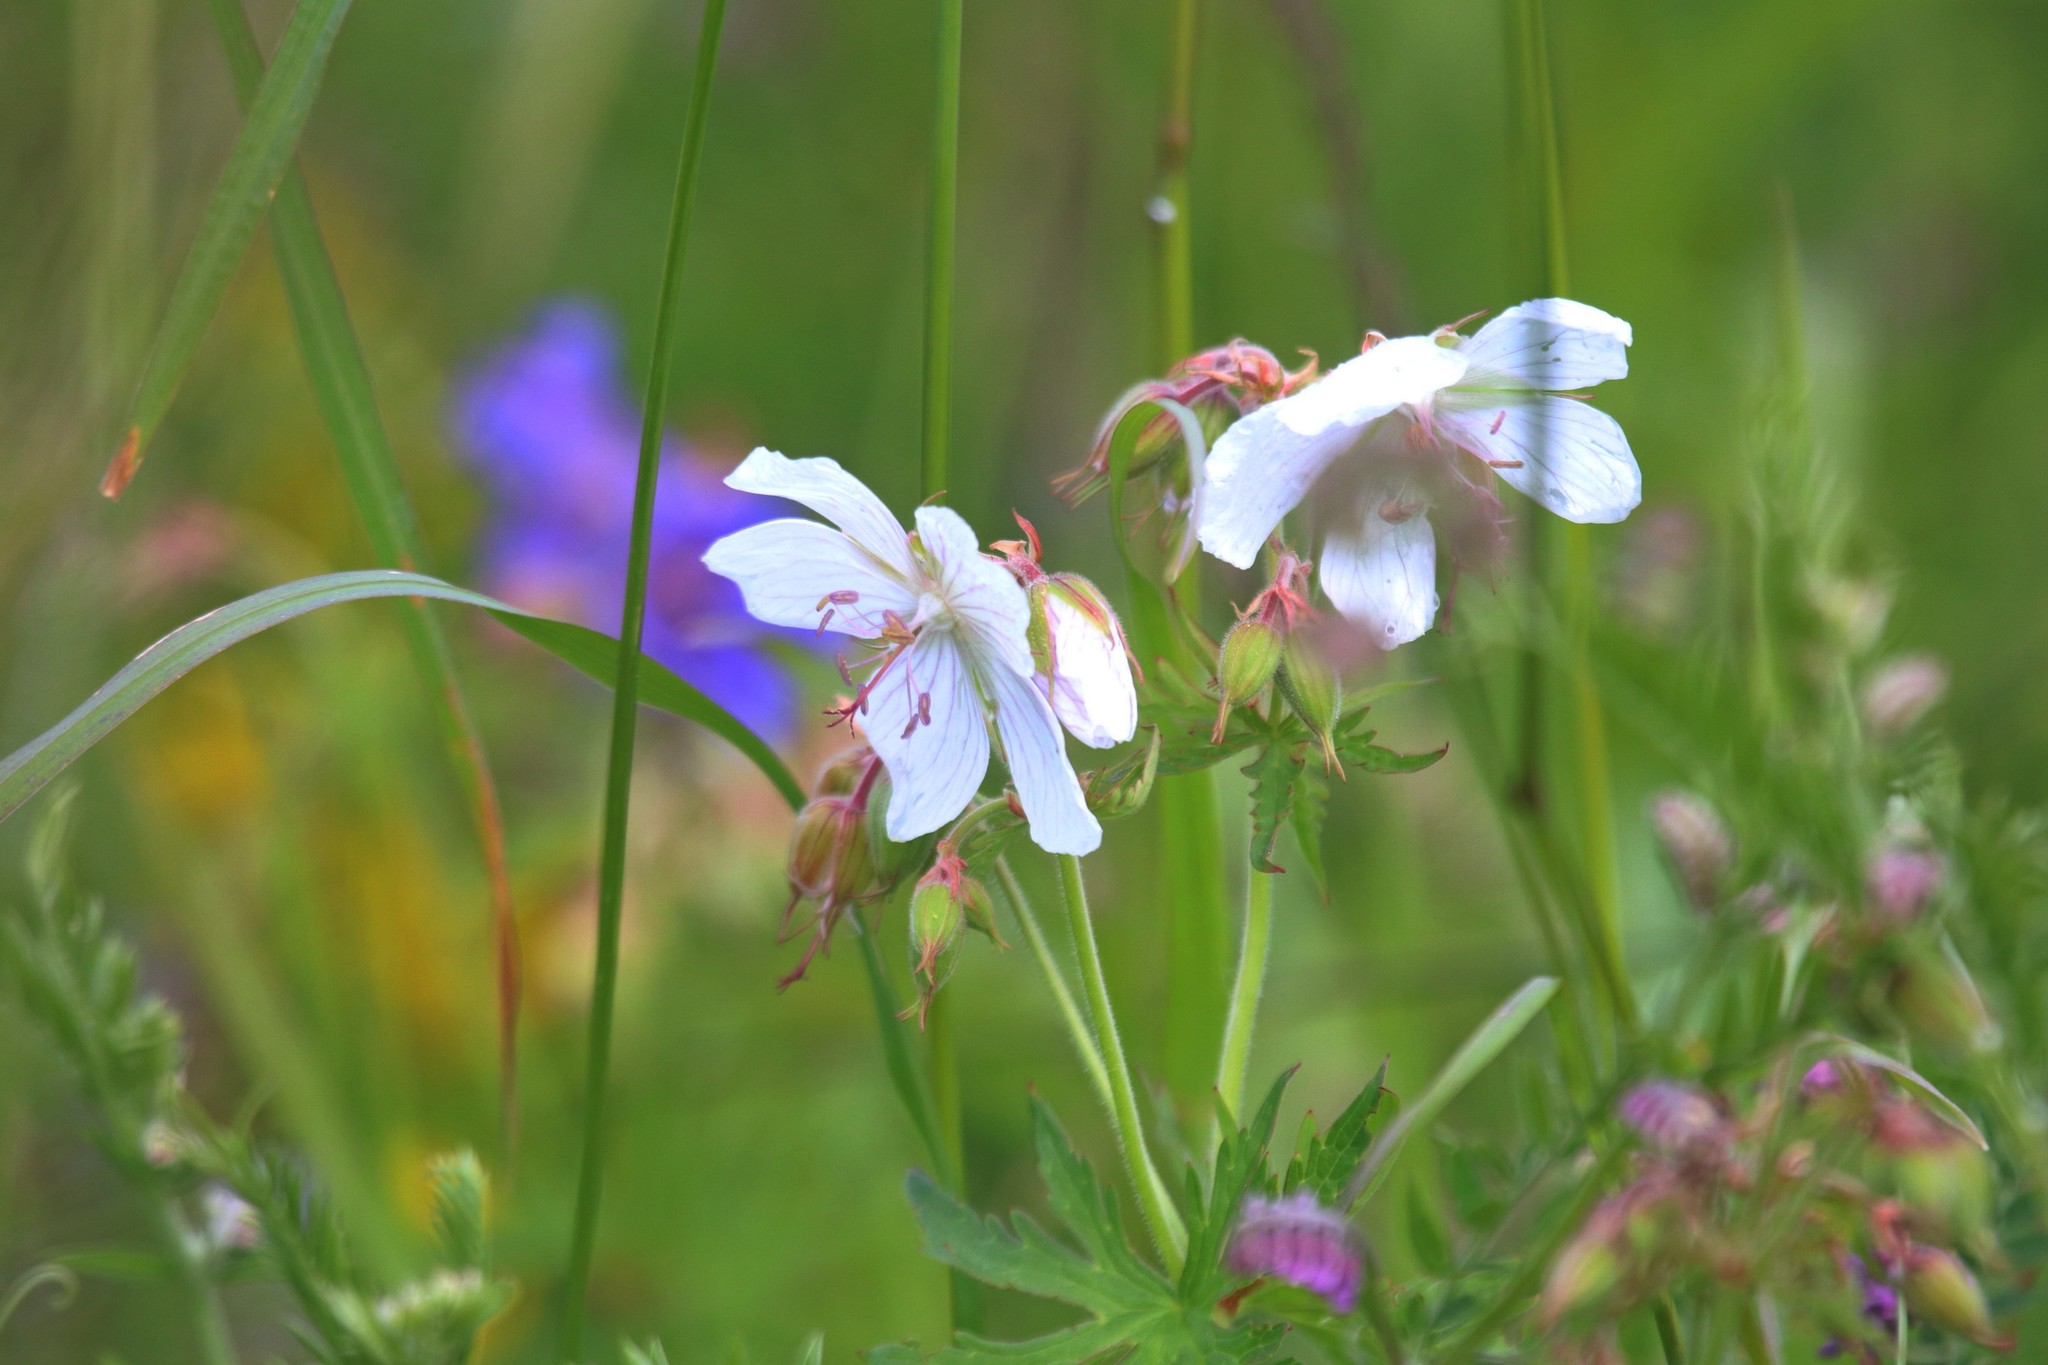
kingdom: Plantae
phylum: Tracheophyta
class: Magnoliopsida
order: Geraniales
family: Geraniaceae
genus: Geranium
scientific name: Geranium pratense
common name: Meadow crane's-bill
